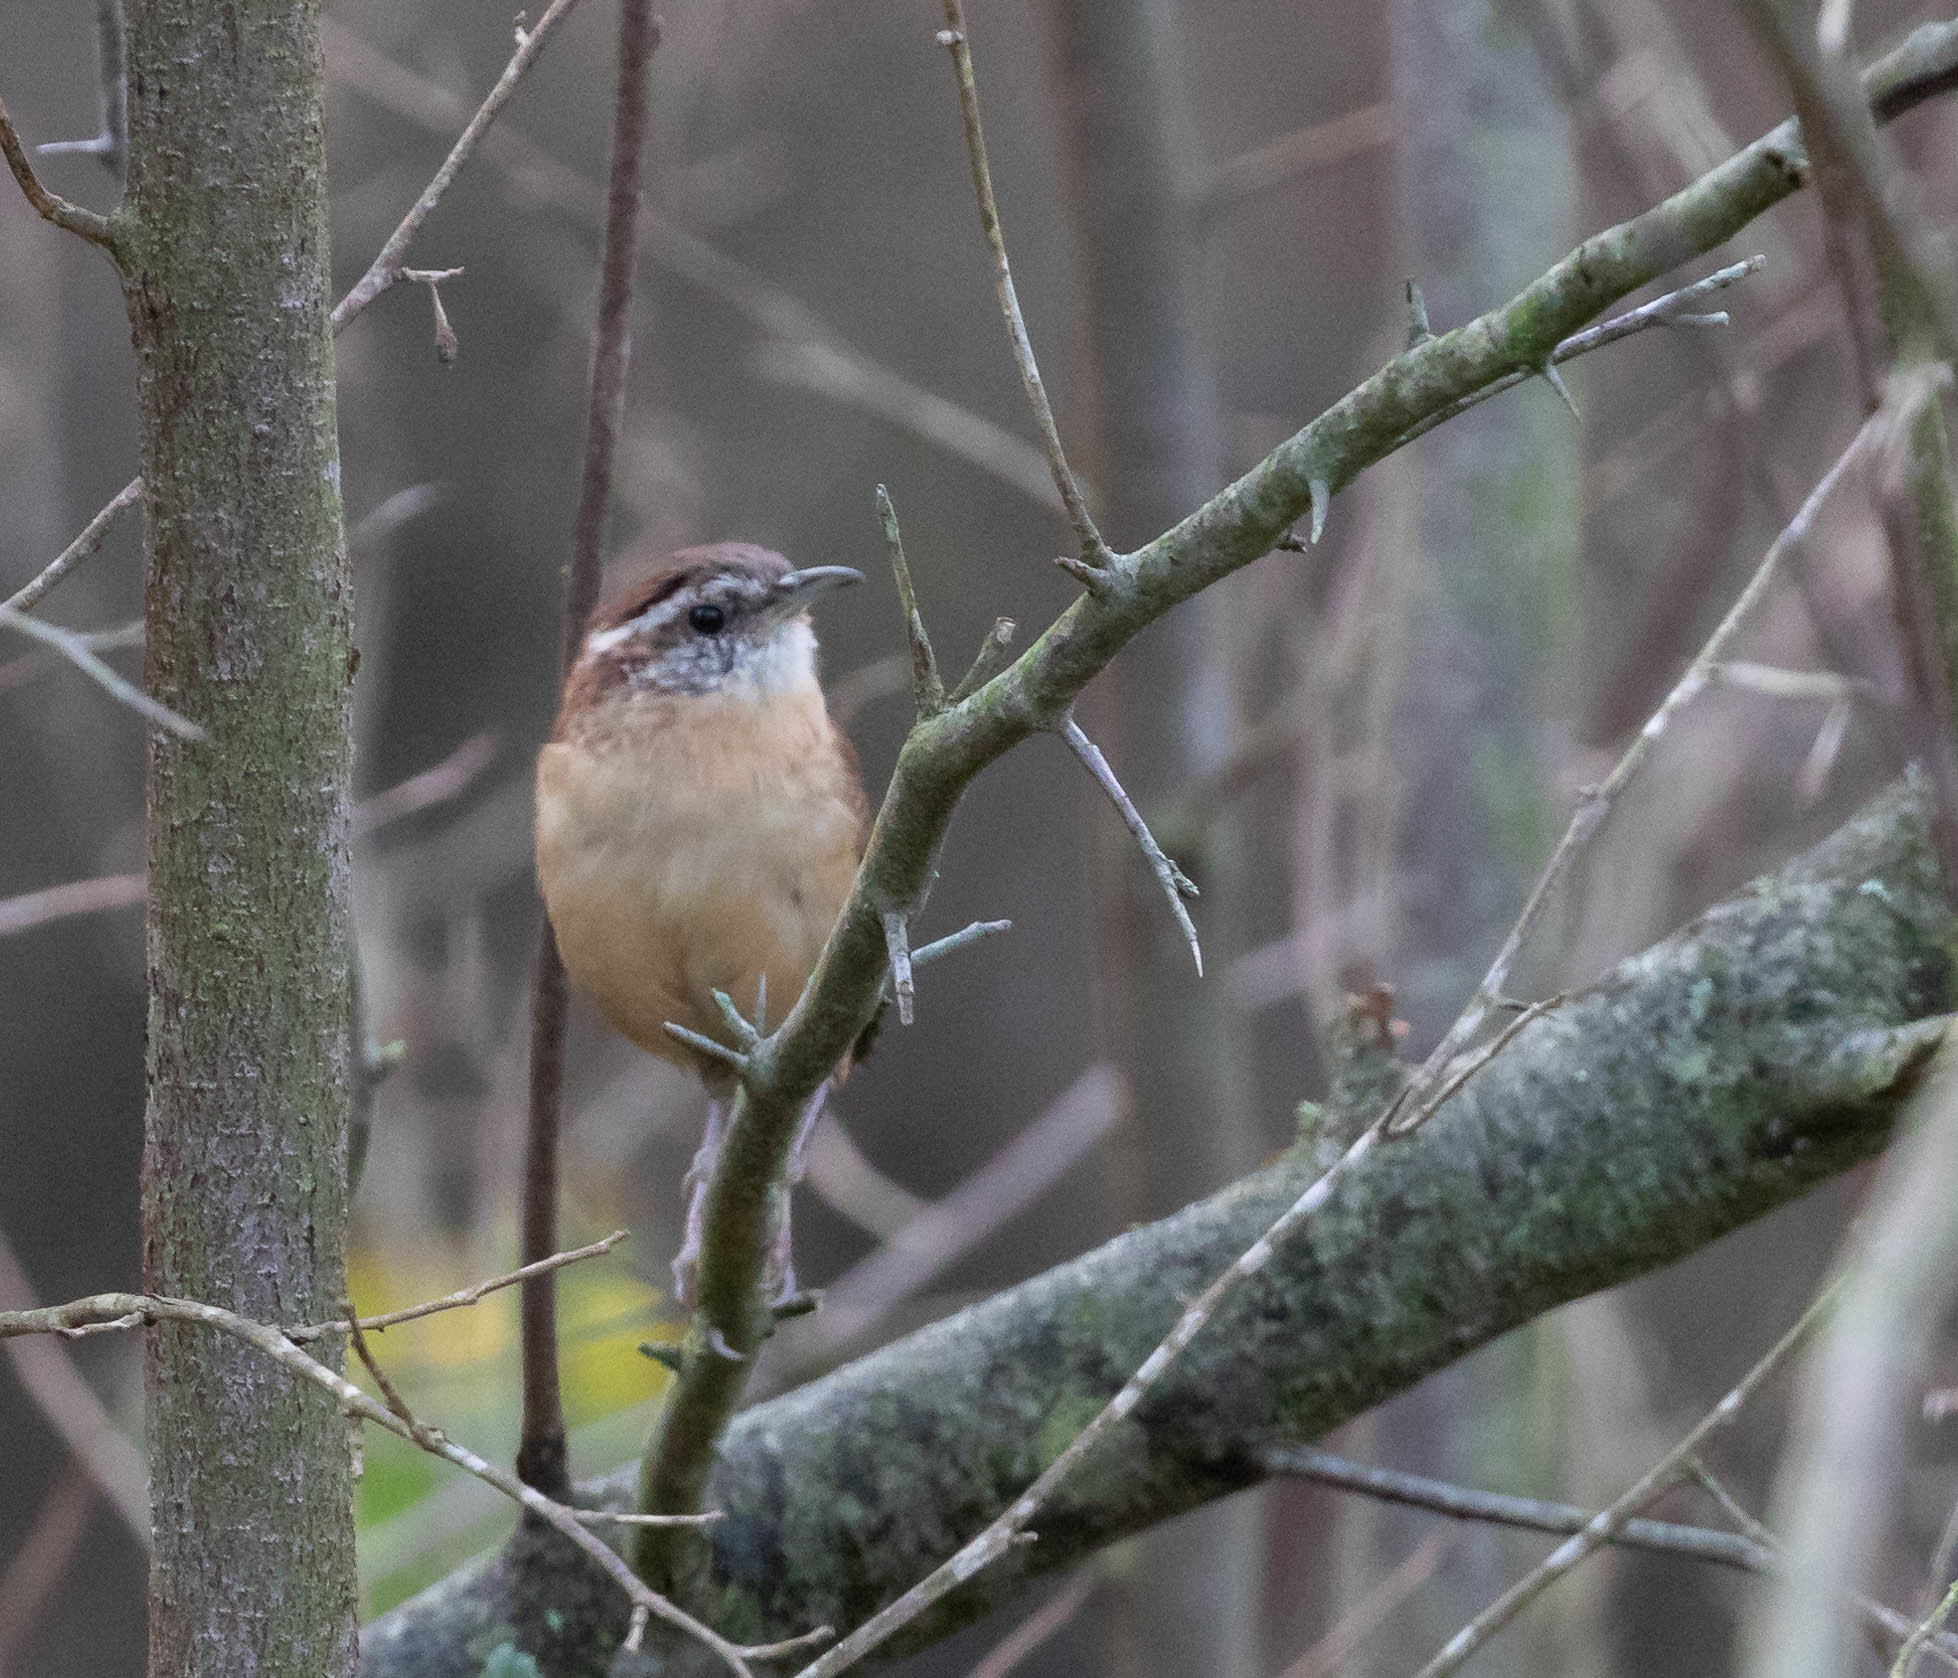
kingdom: Animalia
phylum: Chordata
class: Aves
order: Passeriformes
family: Troglodytidae
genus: Thryothorus
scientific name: Thryothorus ludovicianus
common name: Carolina wren
